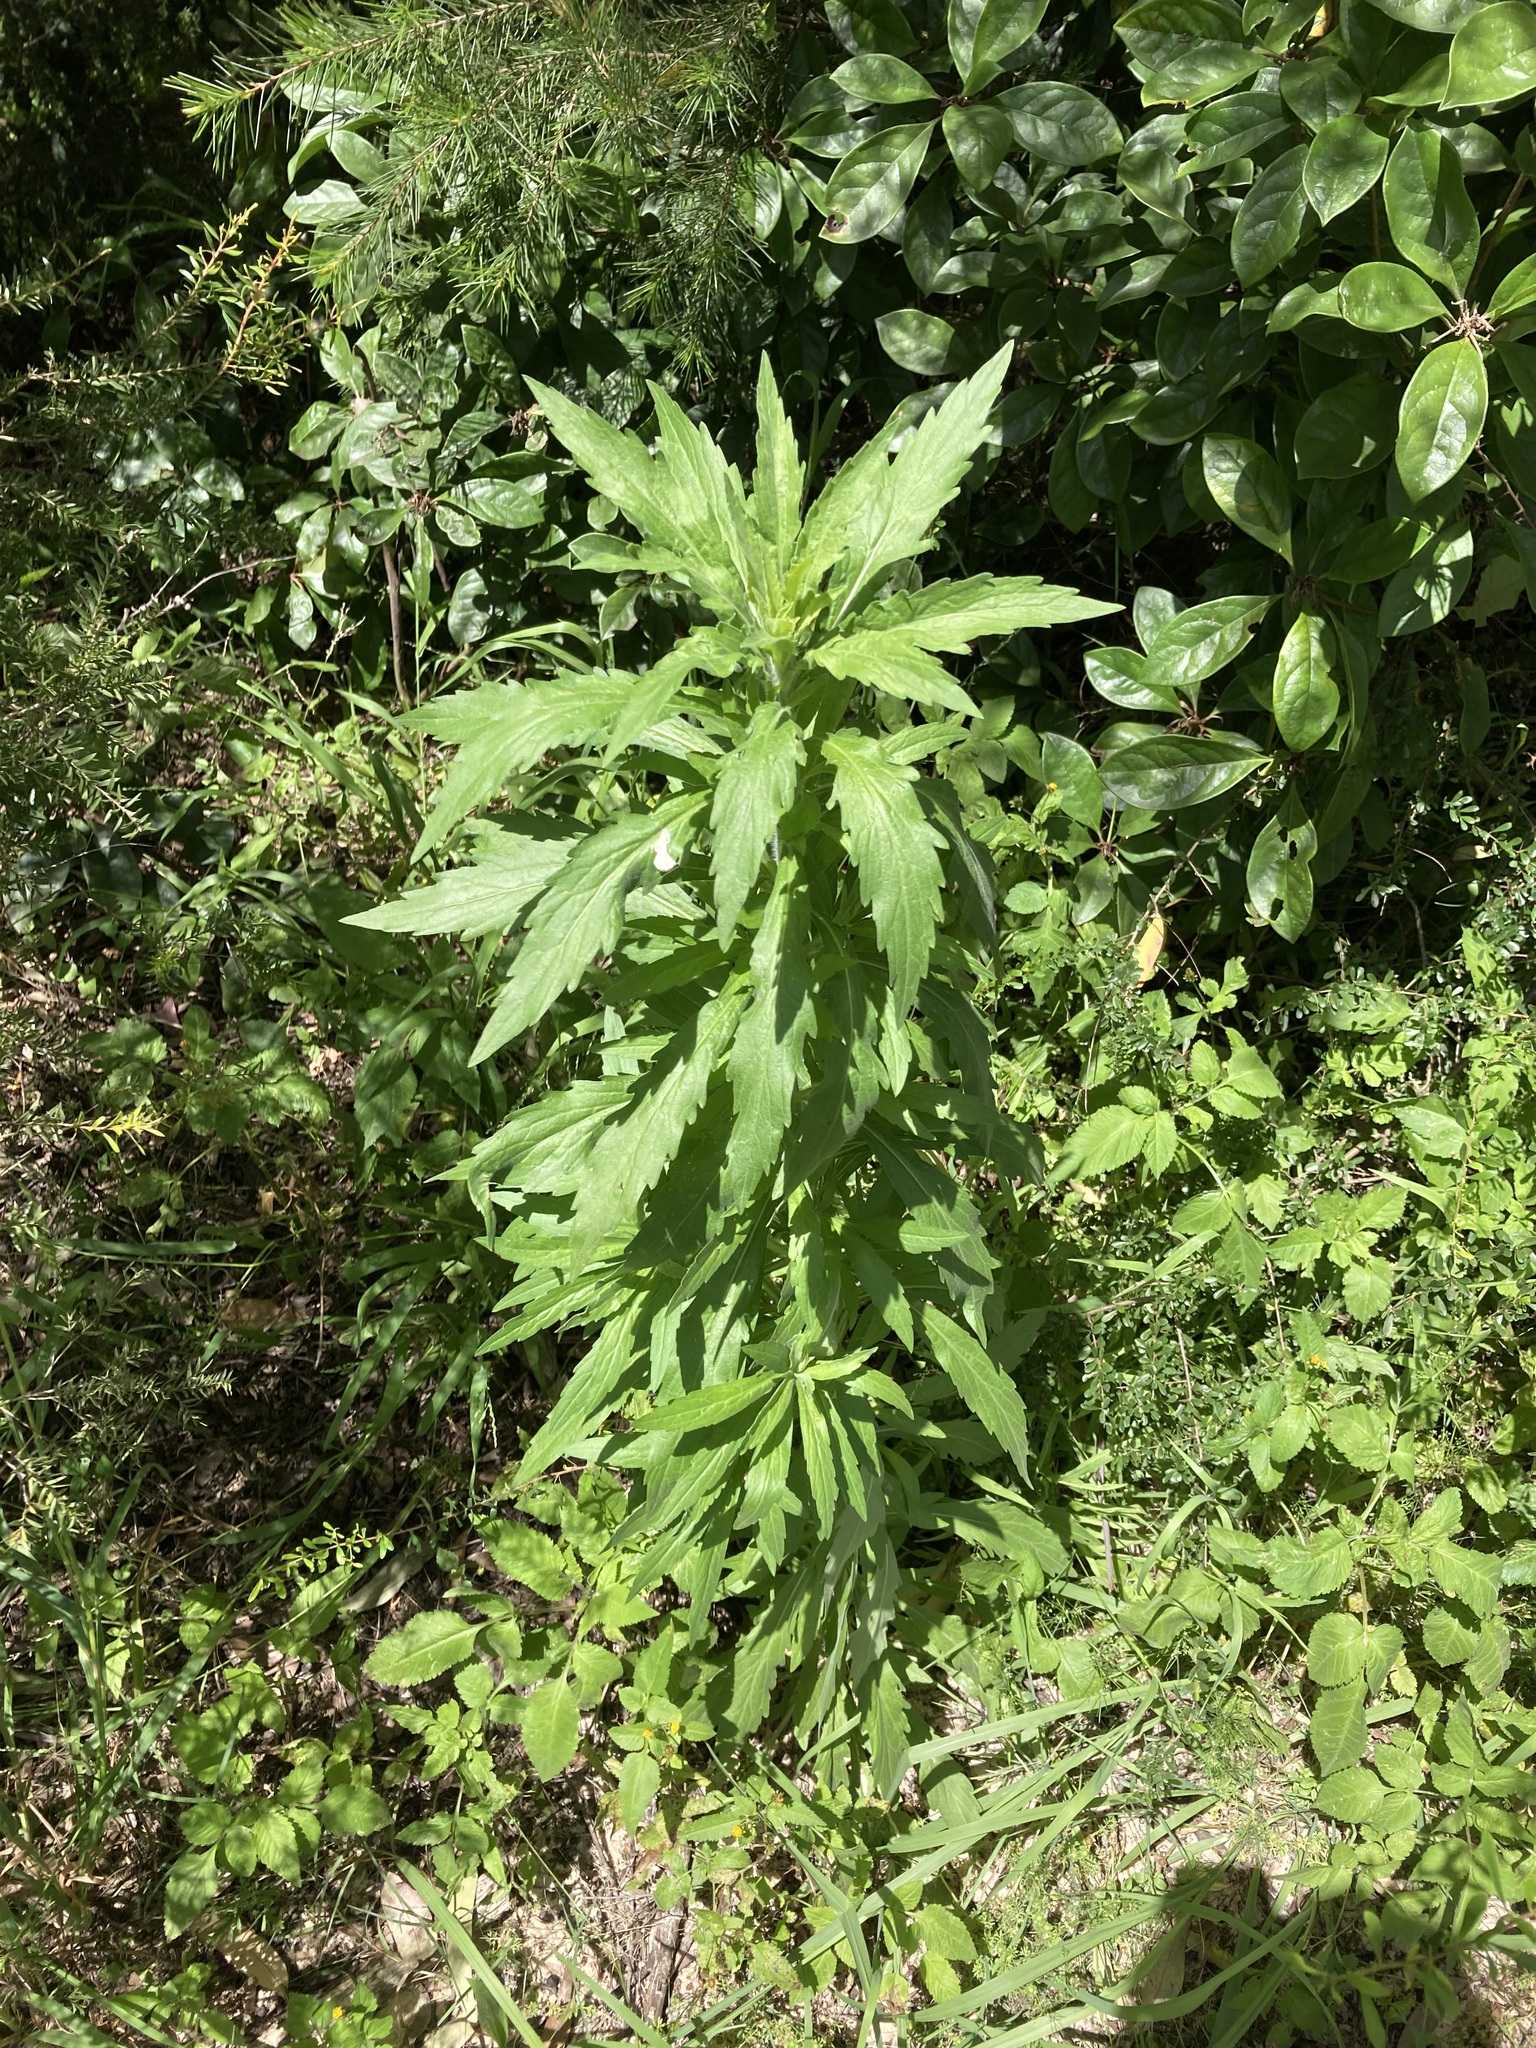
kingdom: Plantae
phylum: Tracheophyta
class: Magnoliopsida
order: Asterales
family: Asteraceae
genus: Erigeron
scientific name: Erigeron sumatrensis
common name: Daisy
